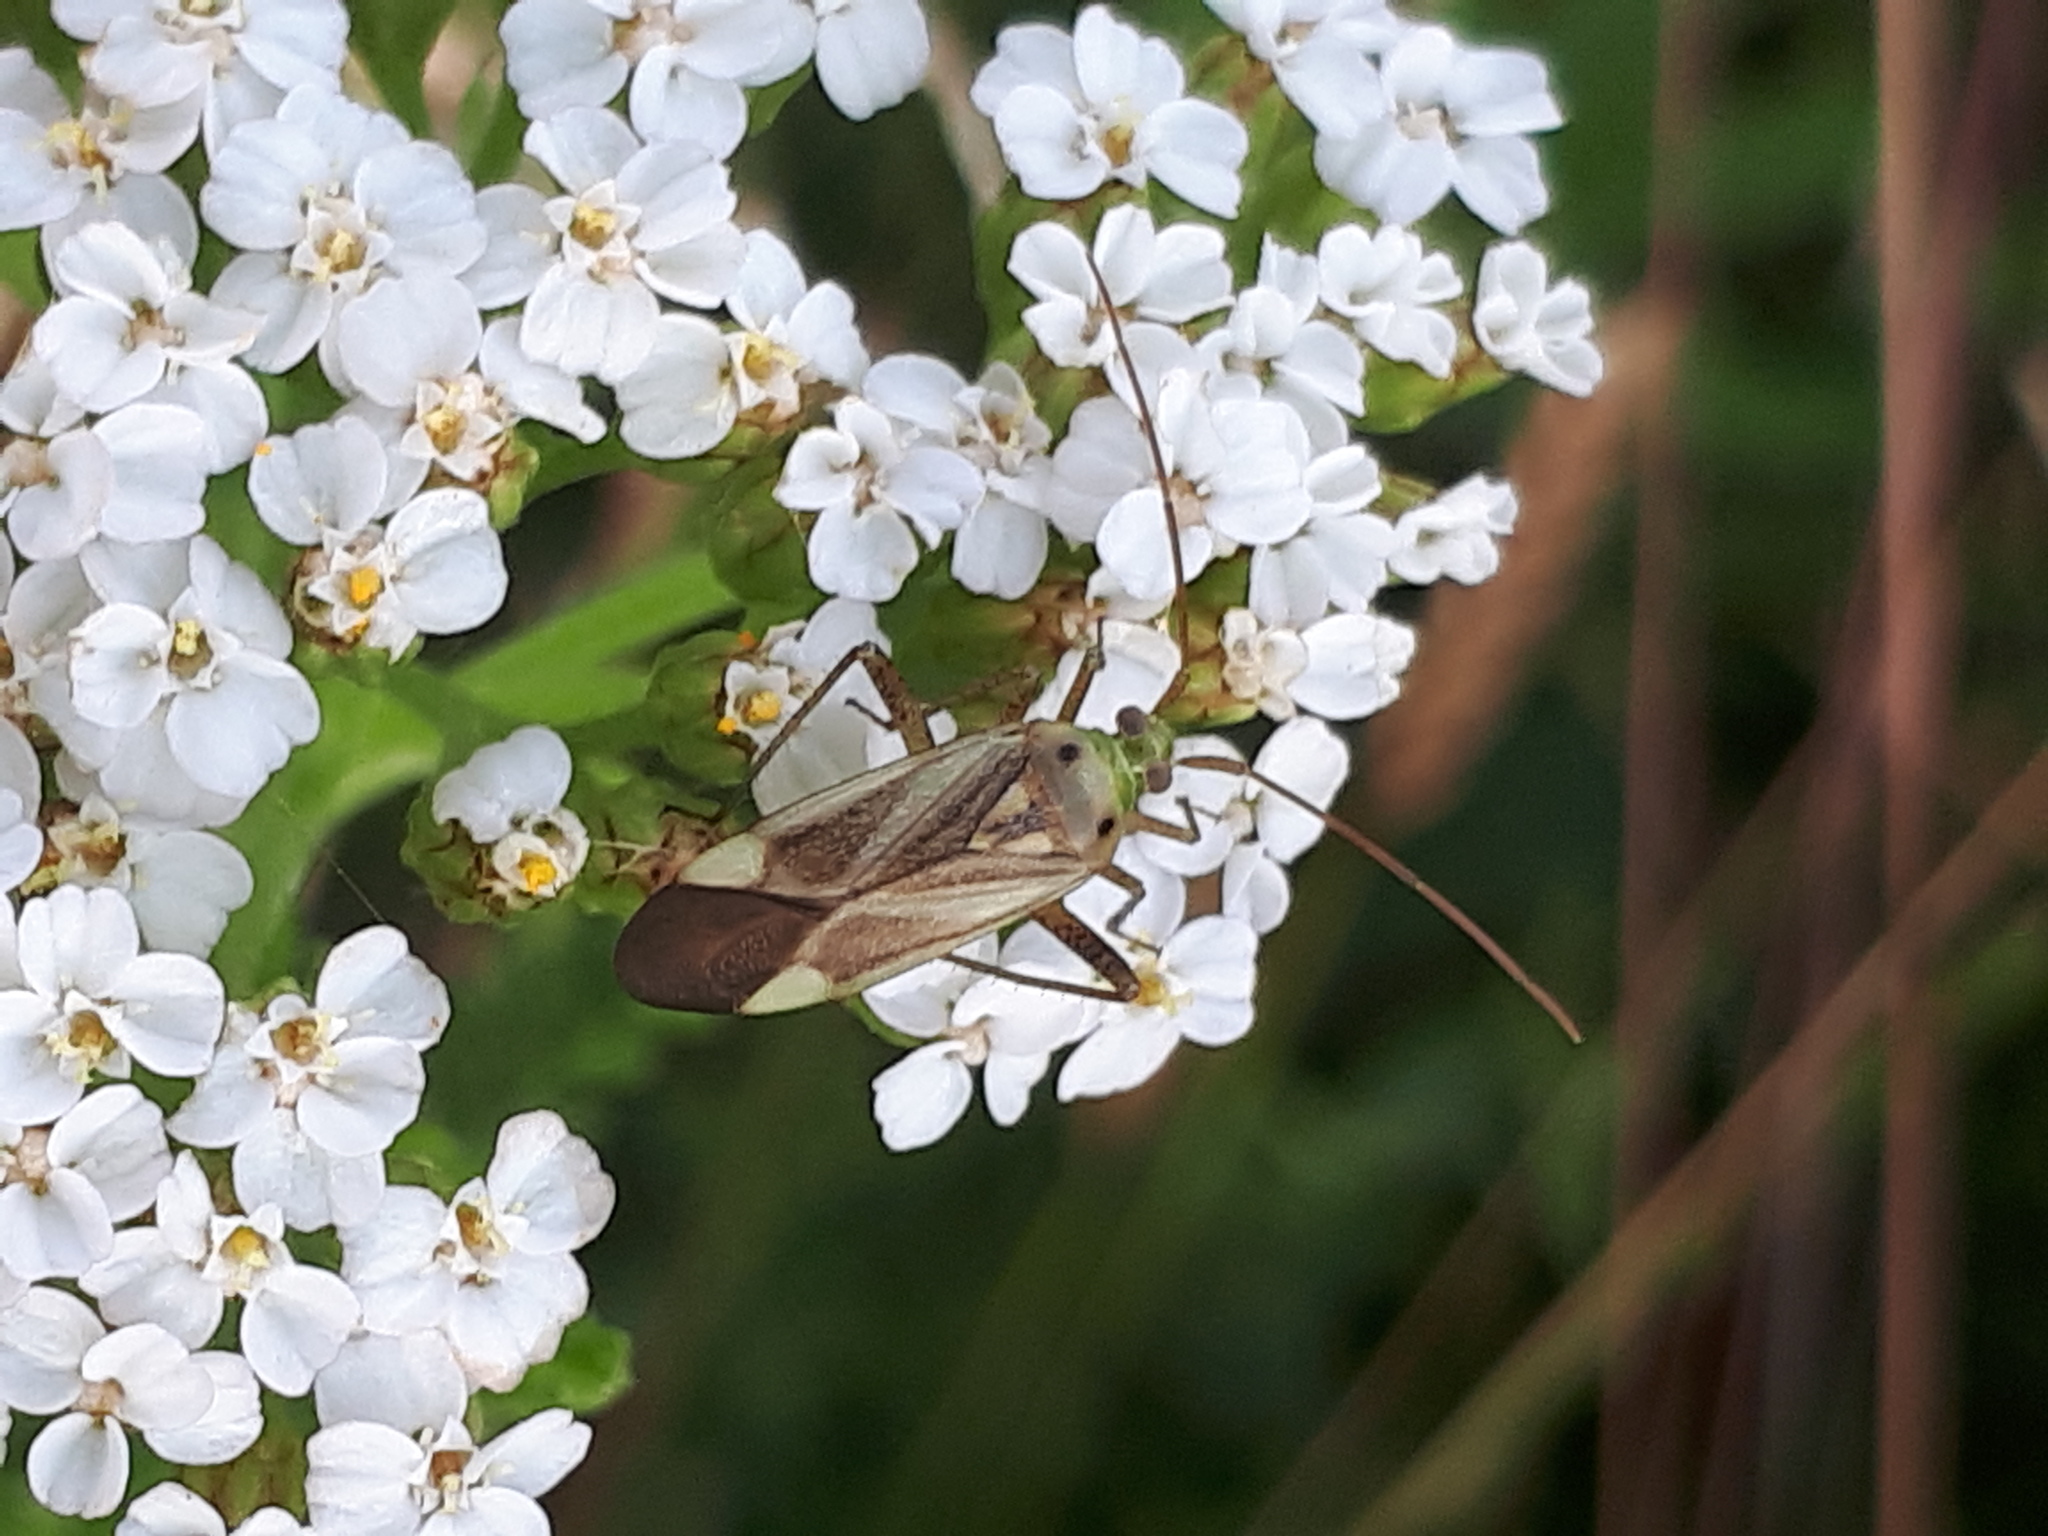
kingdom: Animalia
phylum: Arthropoda
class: Insecta
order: Hemiptera
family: Miridae
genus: Adelphocoris
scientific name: Adelphocoris lineolatus
